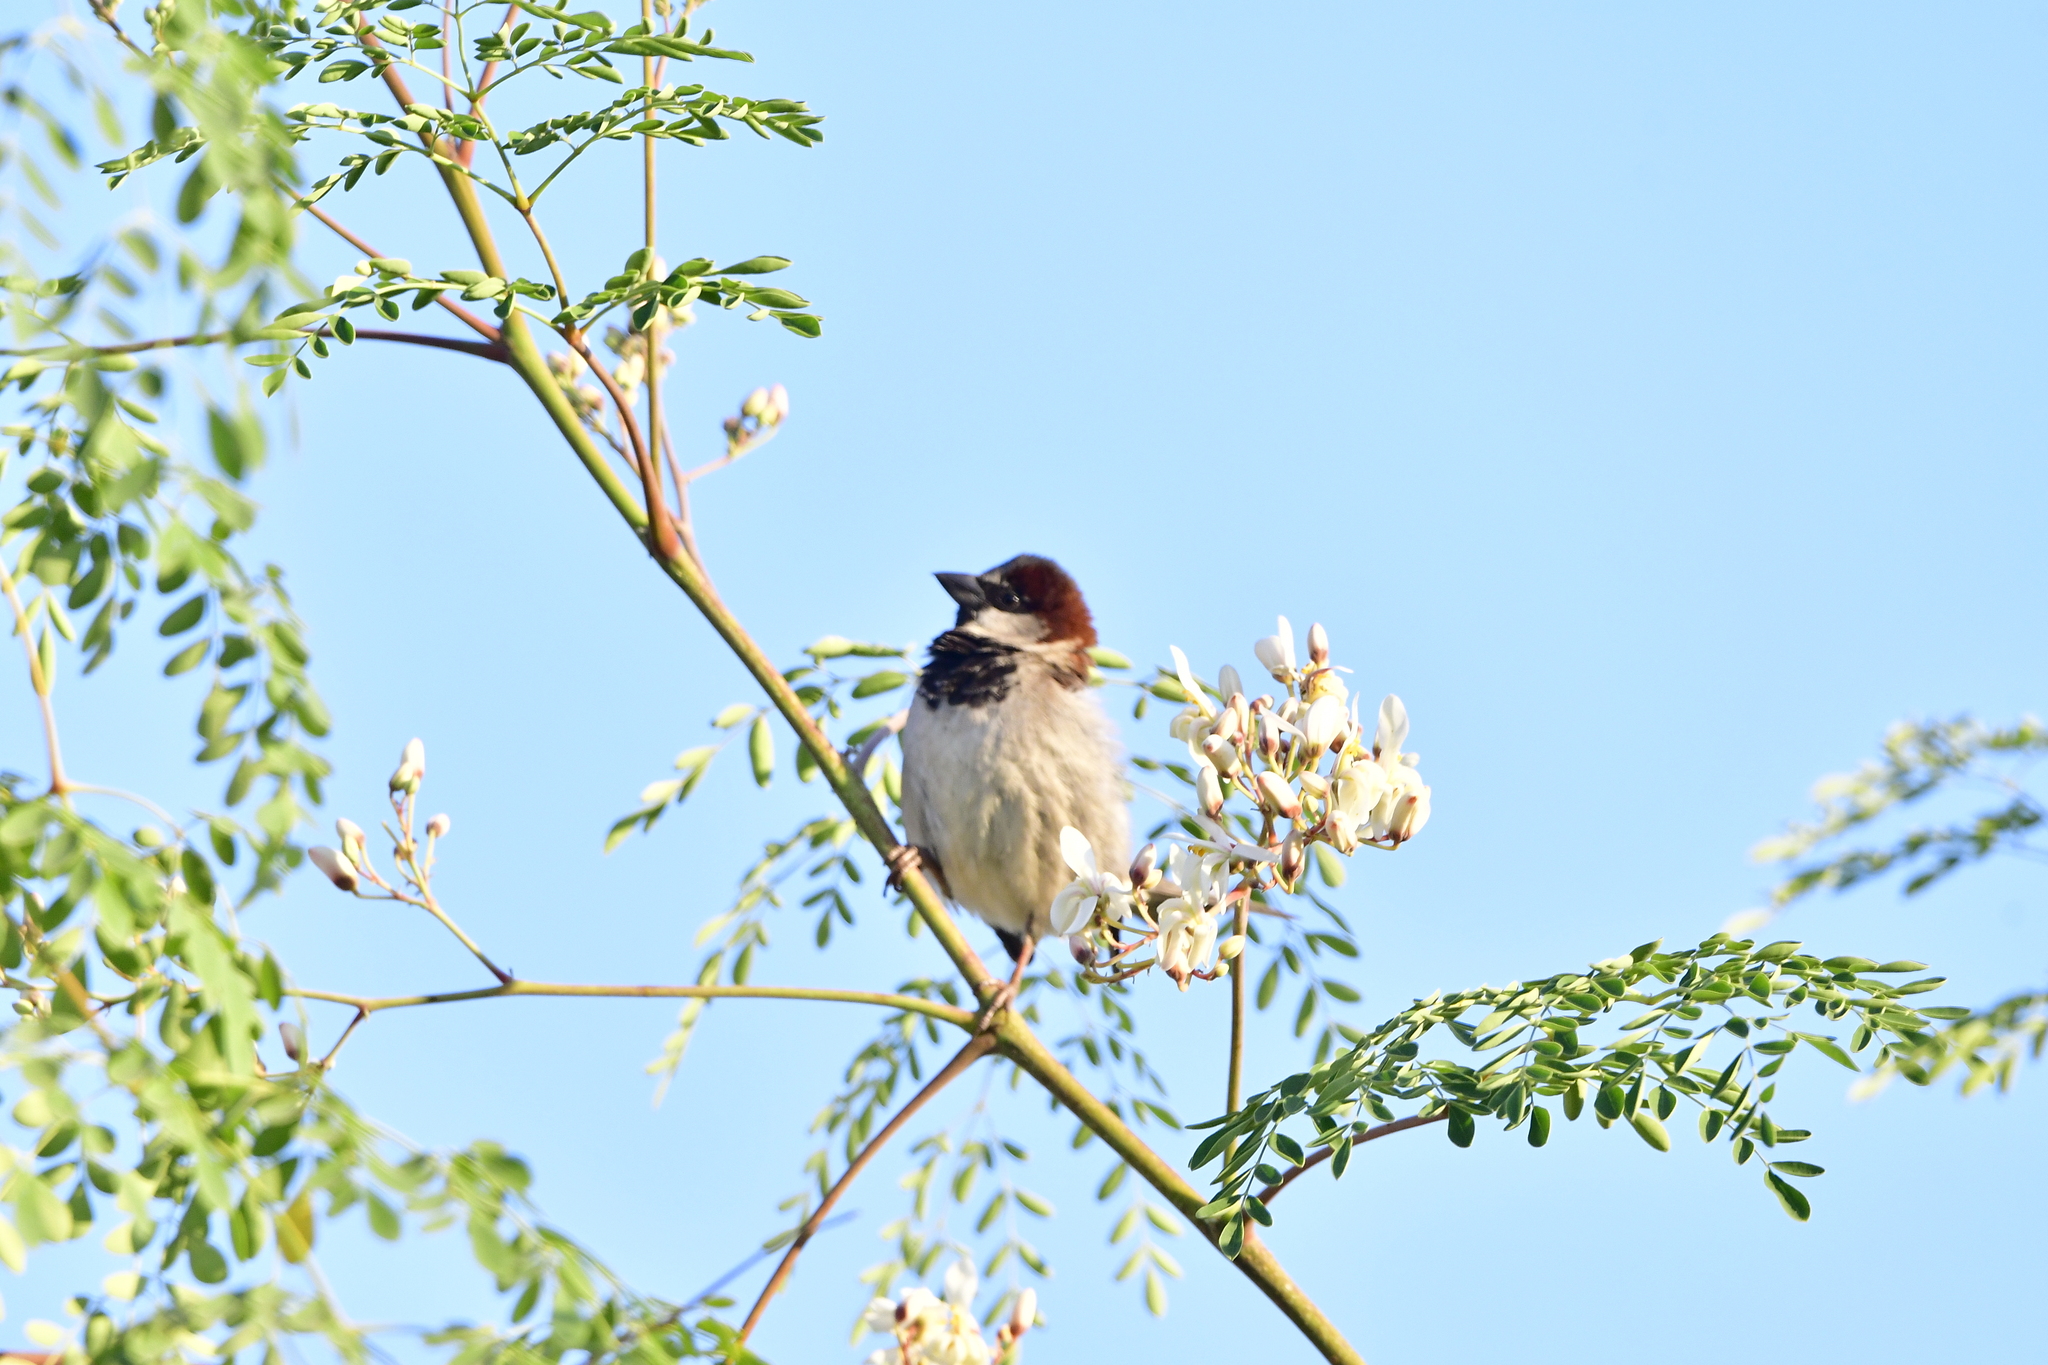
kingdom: Animalia
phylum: Chordata
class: Aves
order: Passeriformes
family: Passeridae
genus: Passer
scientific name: Passer domesticus
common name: House sparrow
